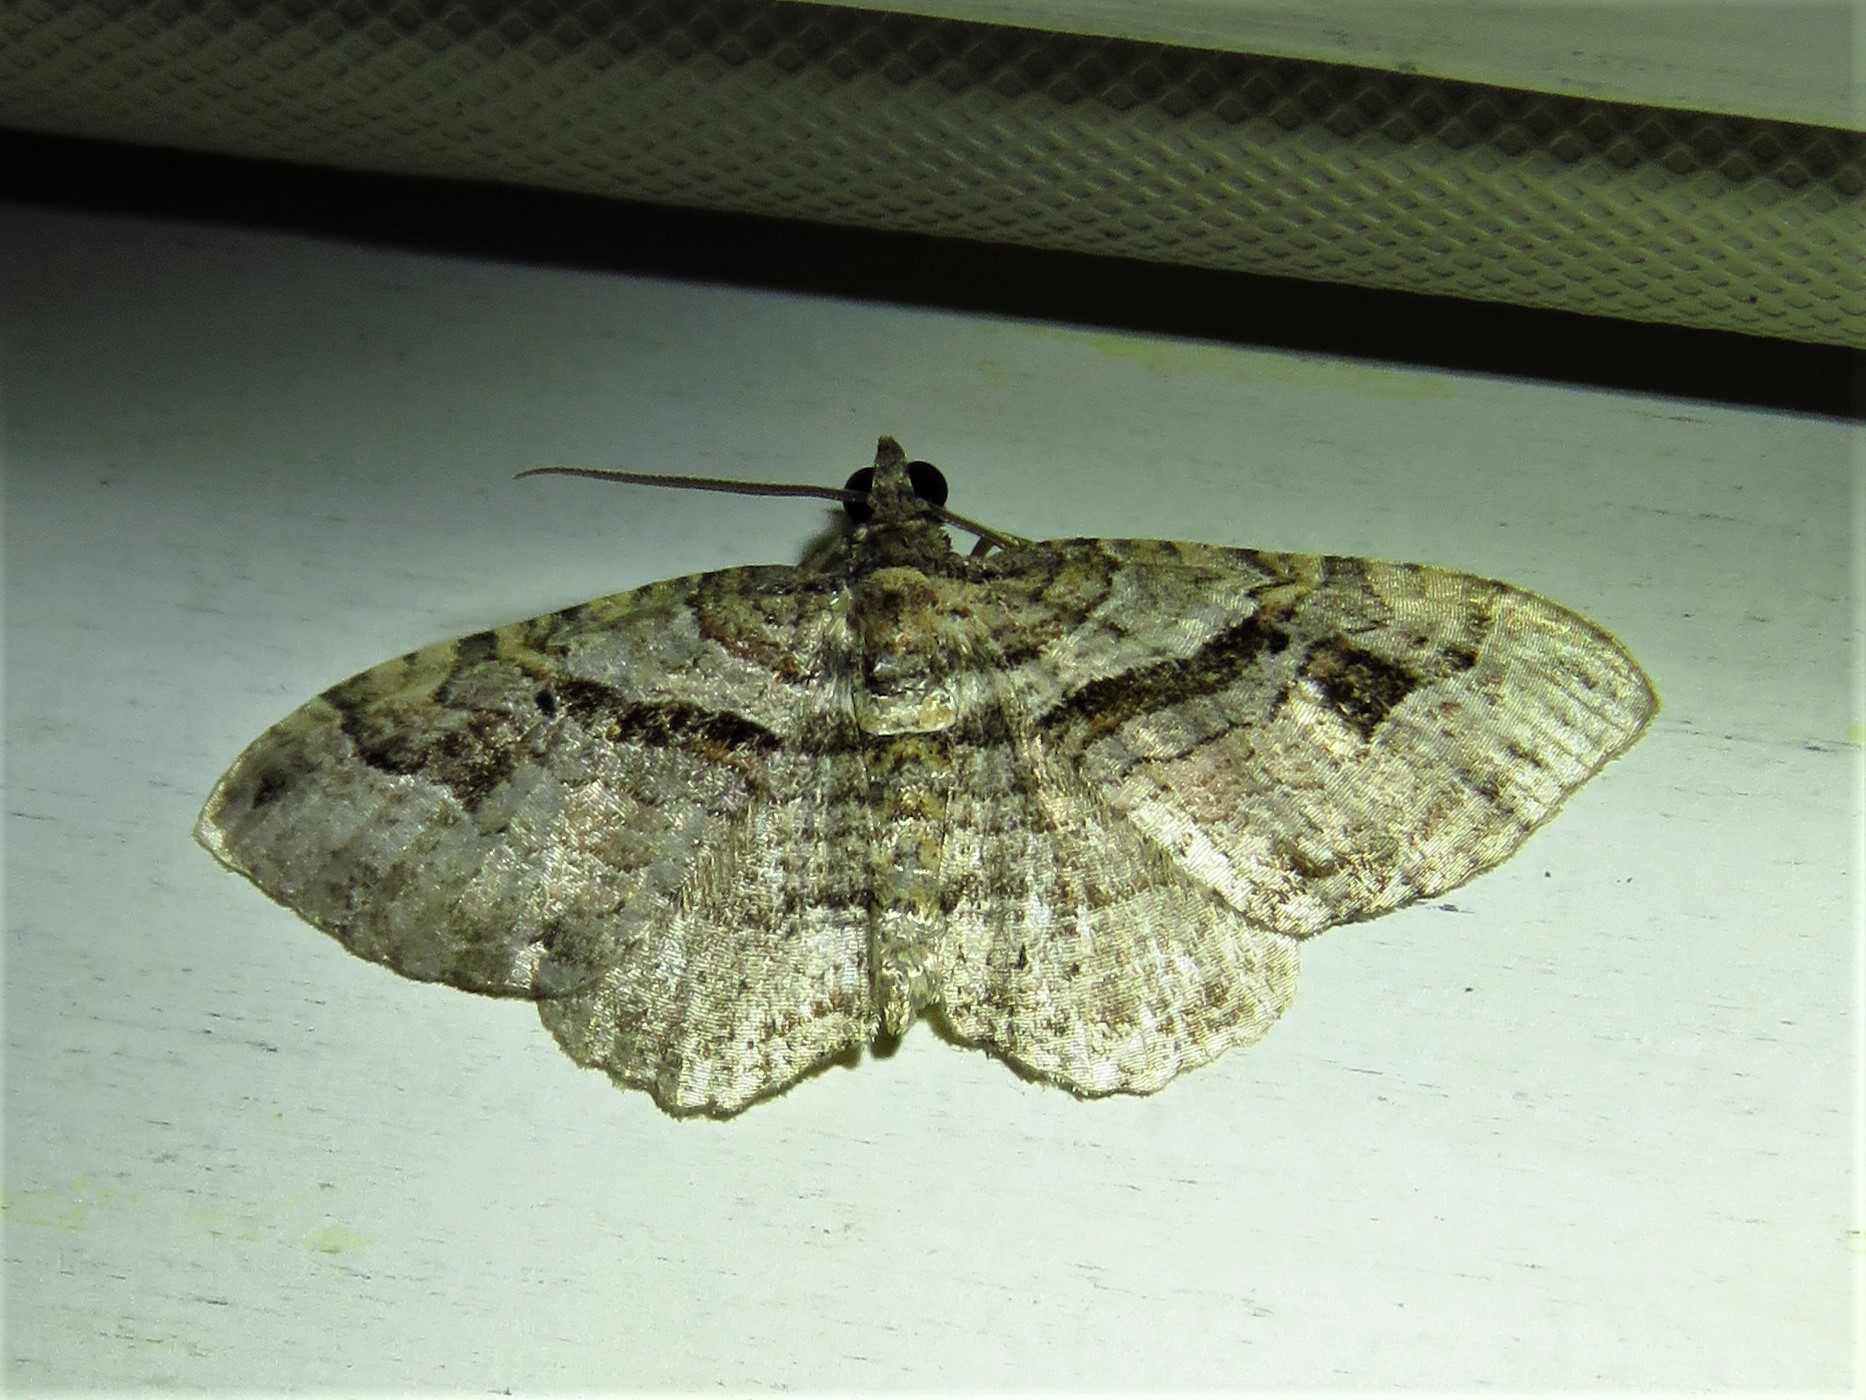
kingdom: Animalia
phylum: Arthropoda
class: Insecta
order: Lepidoptera
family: Geometridae
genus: Costaconvexa
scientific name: Costaconvexa centrostrigaria
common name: Bent-line carpet
